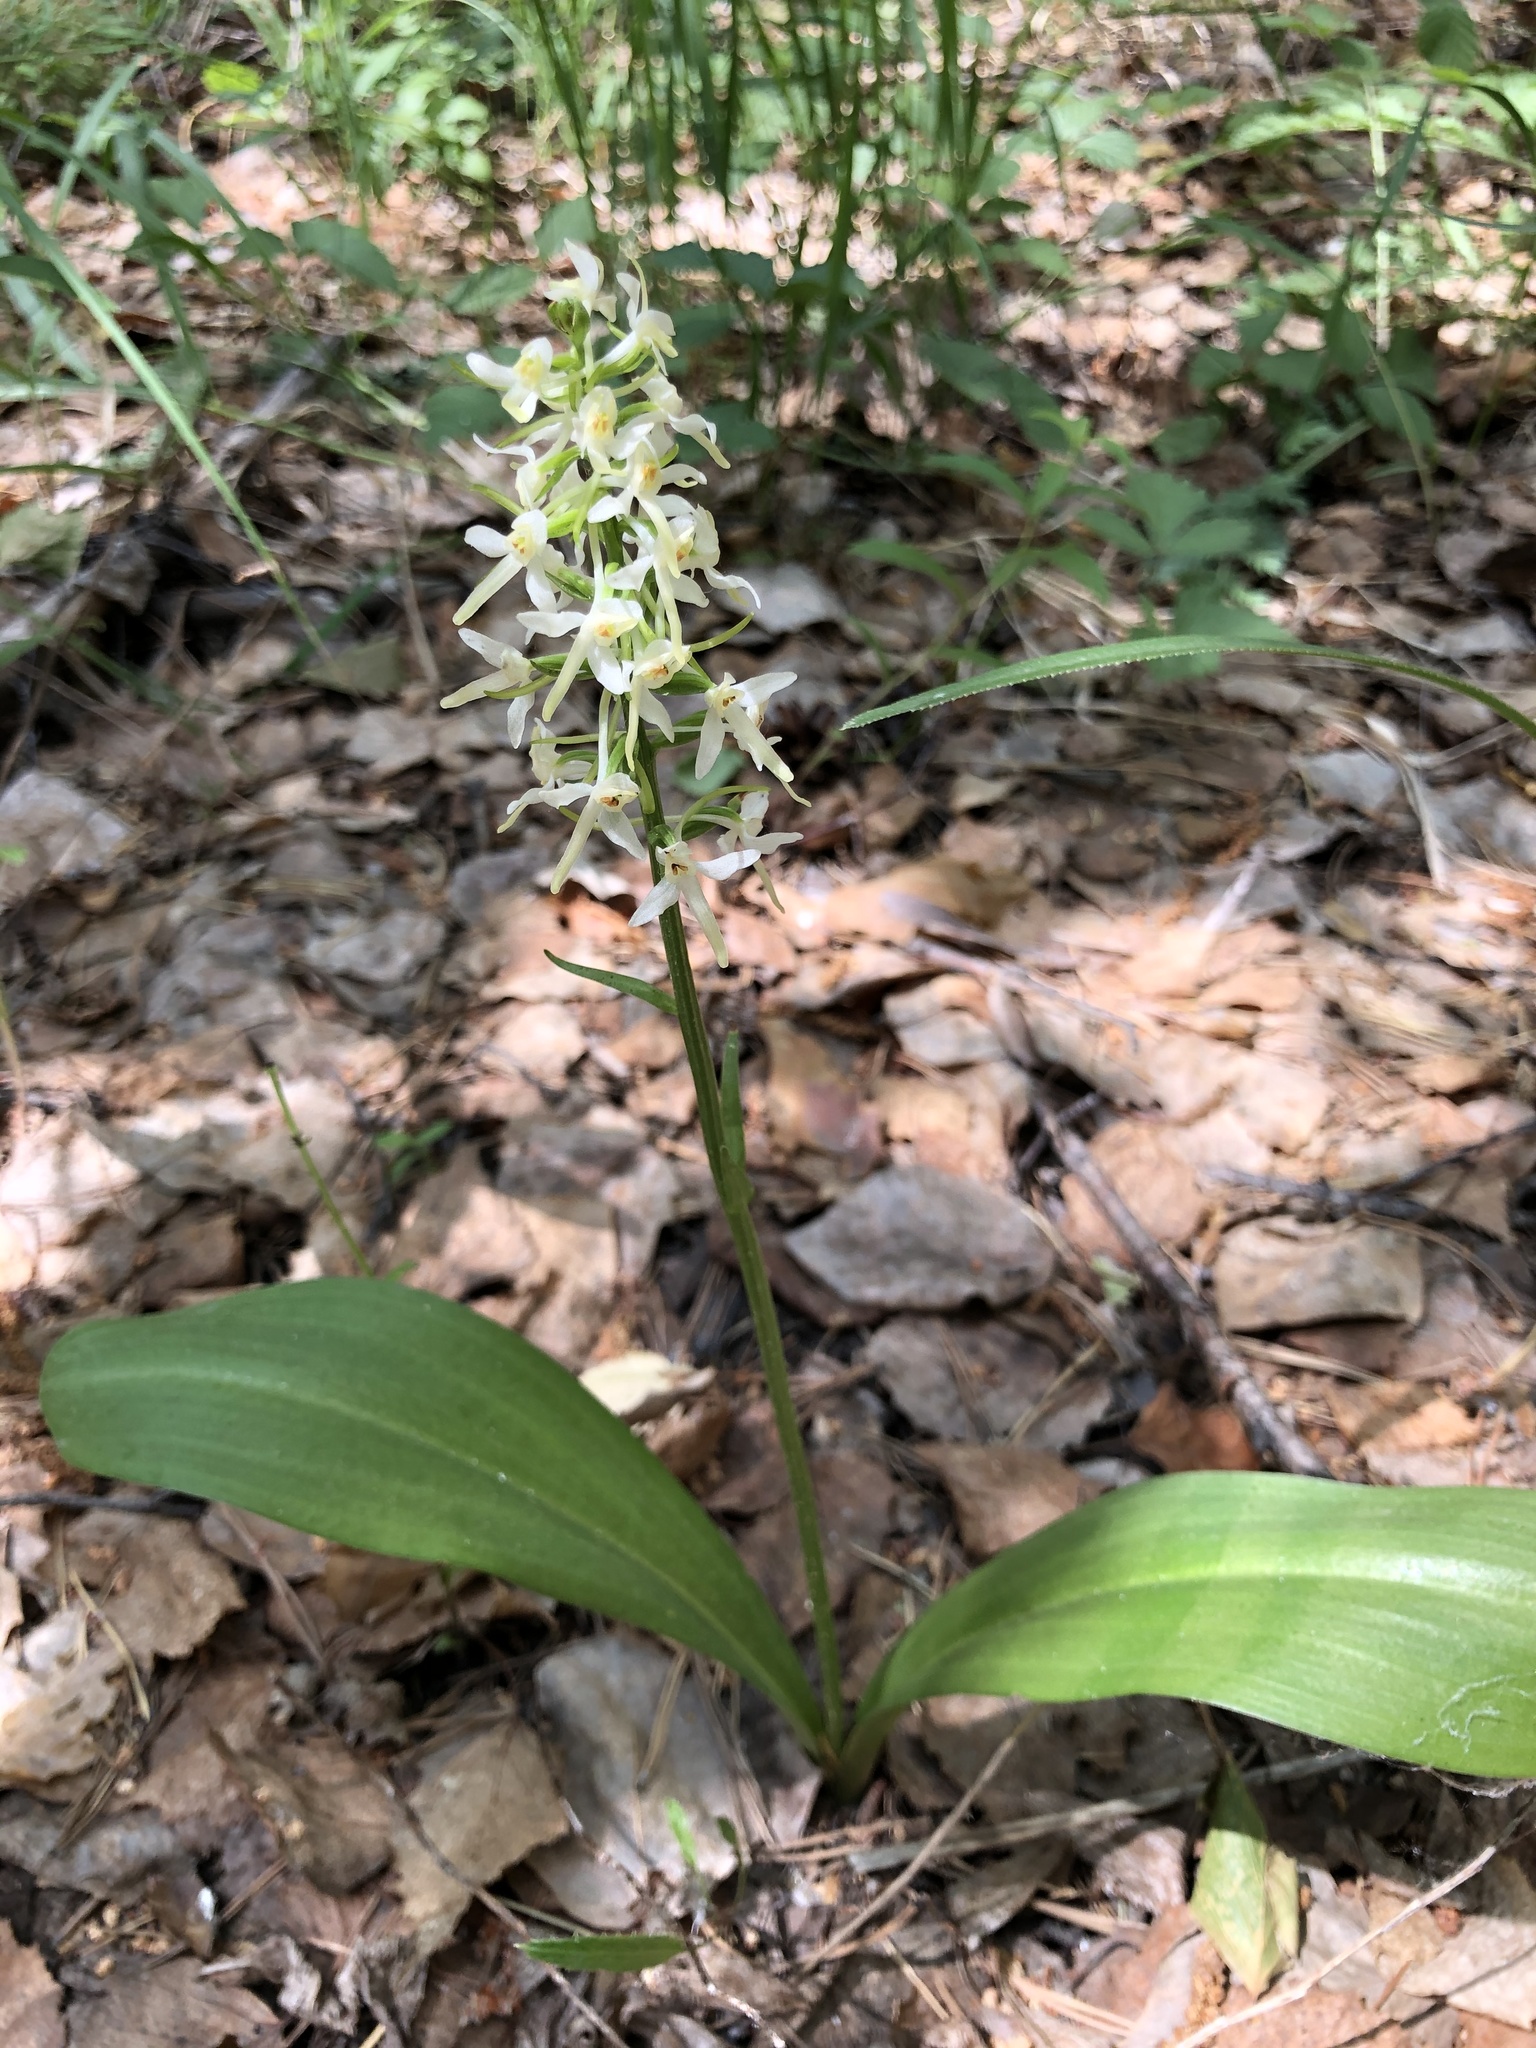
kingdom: Plantae
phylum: Tracheophyta
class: Liliopsida
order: Asparagales
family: Orchidaceae
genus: Platanthera
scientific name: Platanthera bifolia
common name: Lesser butterfly-orchid
